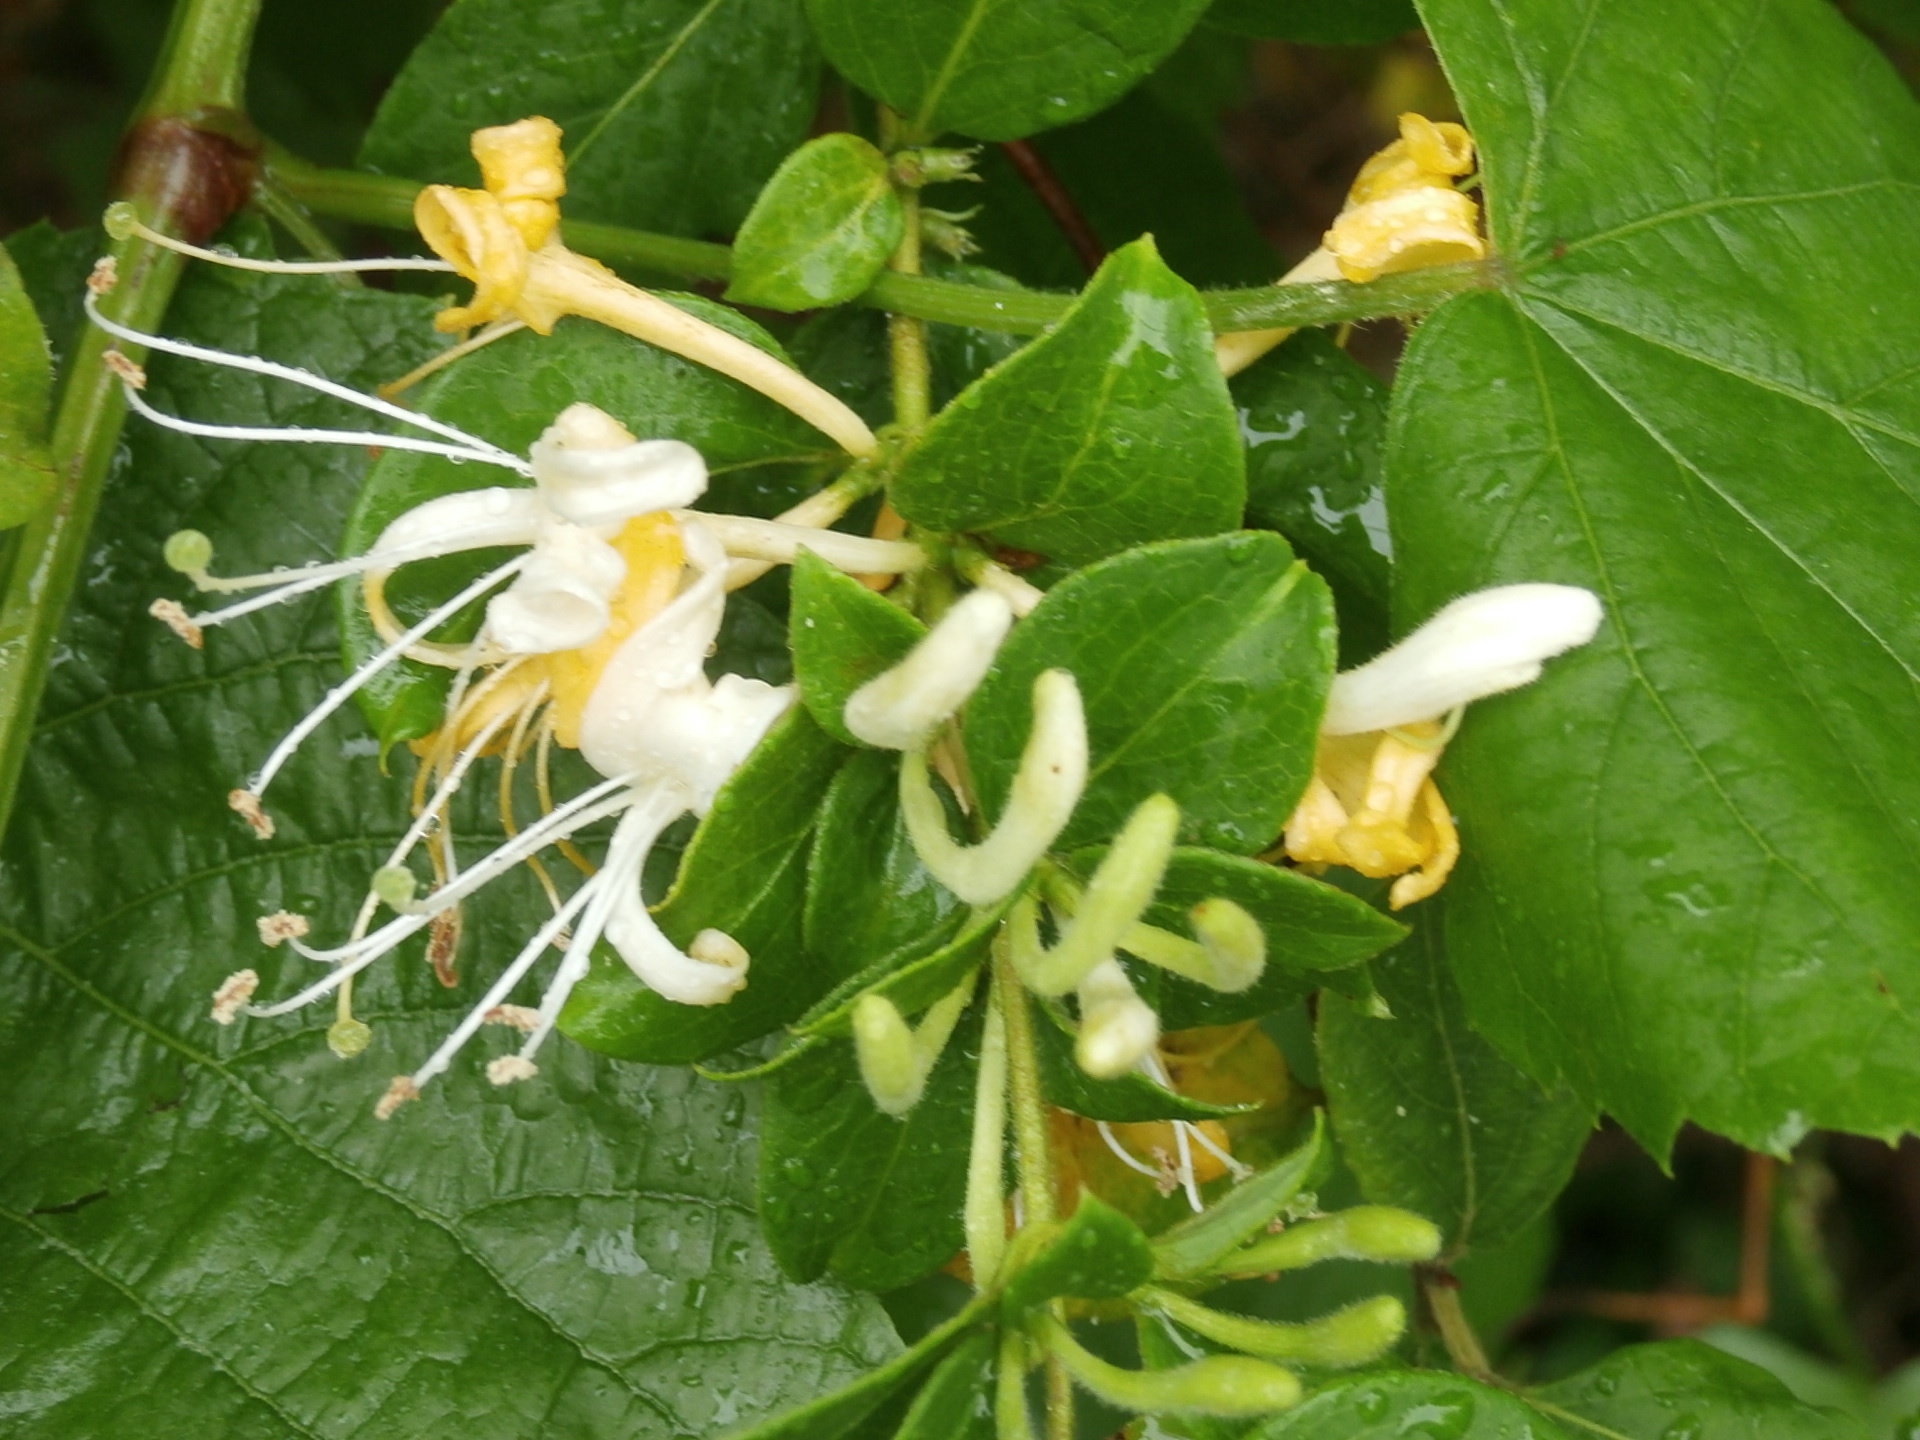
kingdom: Plantae
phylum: Tracheophyta
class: Magnoliopsida
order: Dipsacales
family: Caprifoliaceae
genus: Lonicera
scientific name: Lonicera japonica
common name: Japanese honeysuckle
